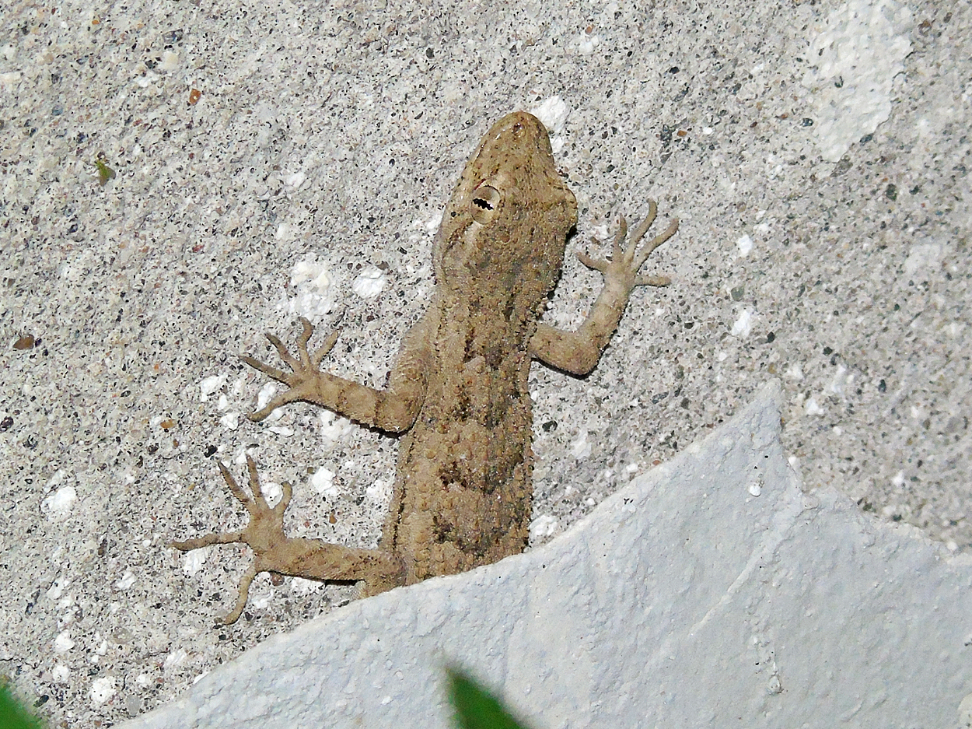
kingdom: Animalia
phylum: Chordata
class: Squamata
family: Gekkonidae
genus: Mediodactylus
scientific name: Mediodactylus russowii
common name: Grey thin-toed gecko
